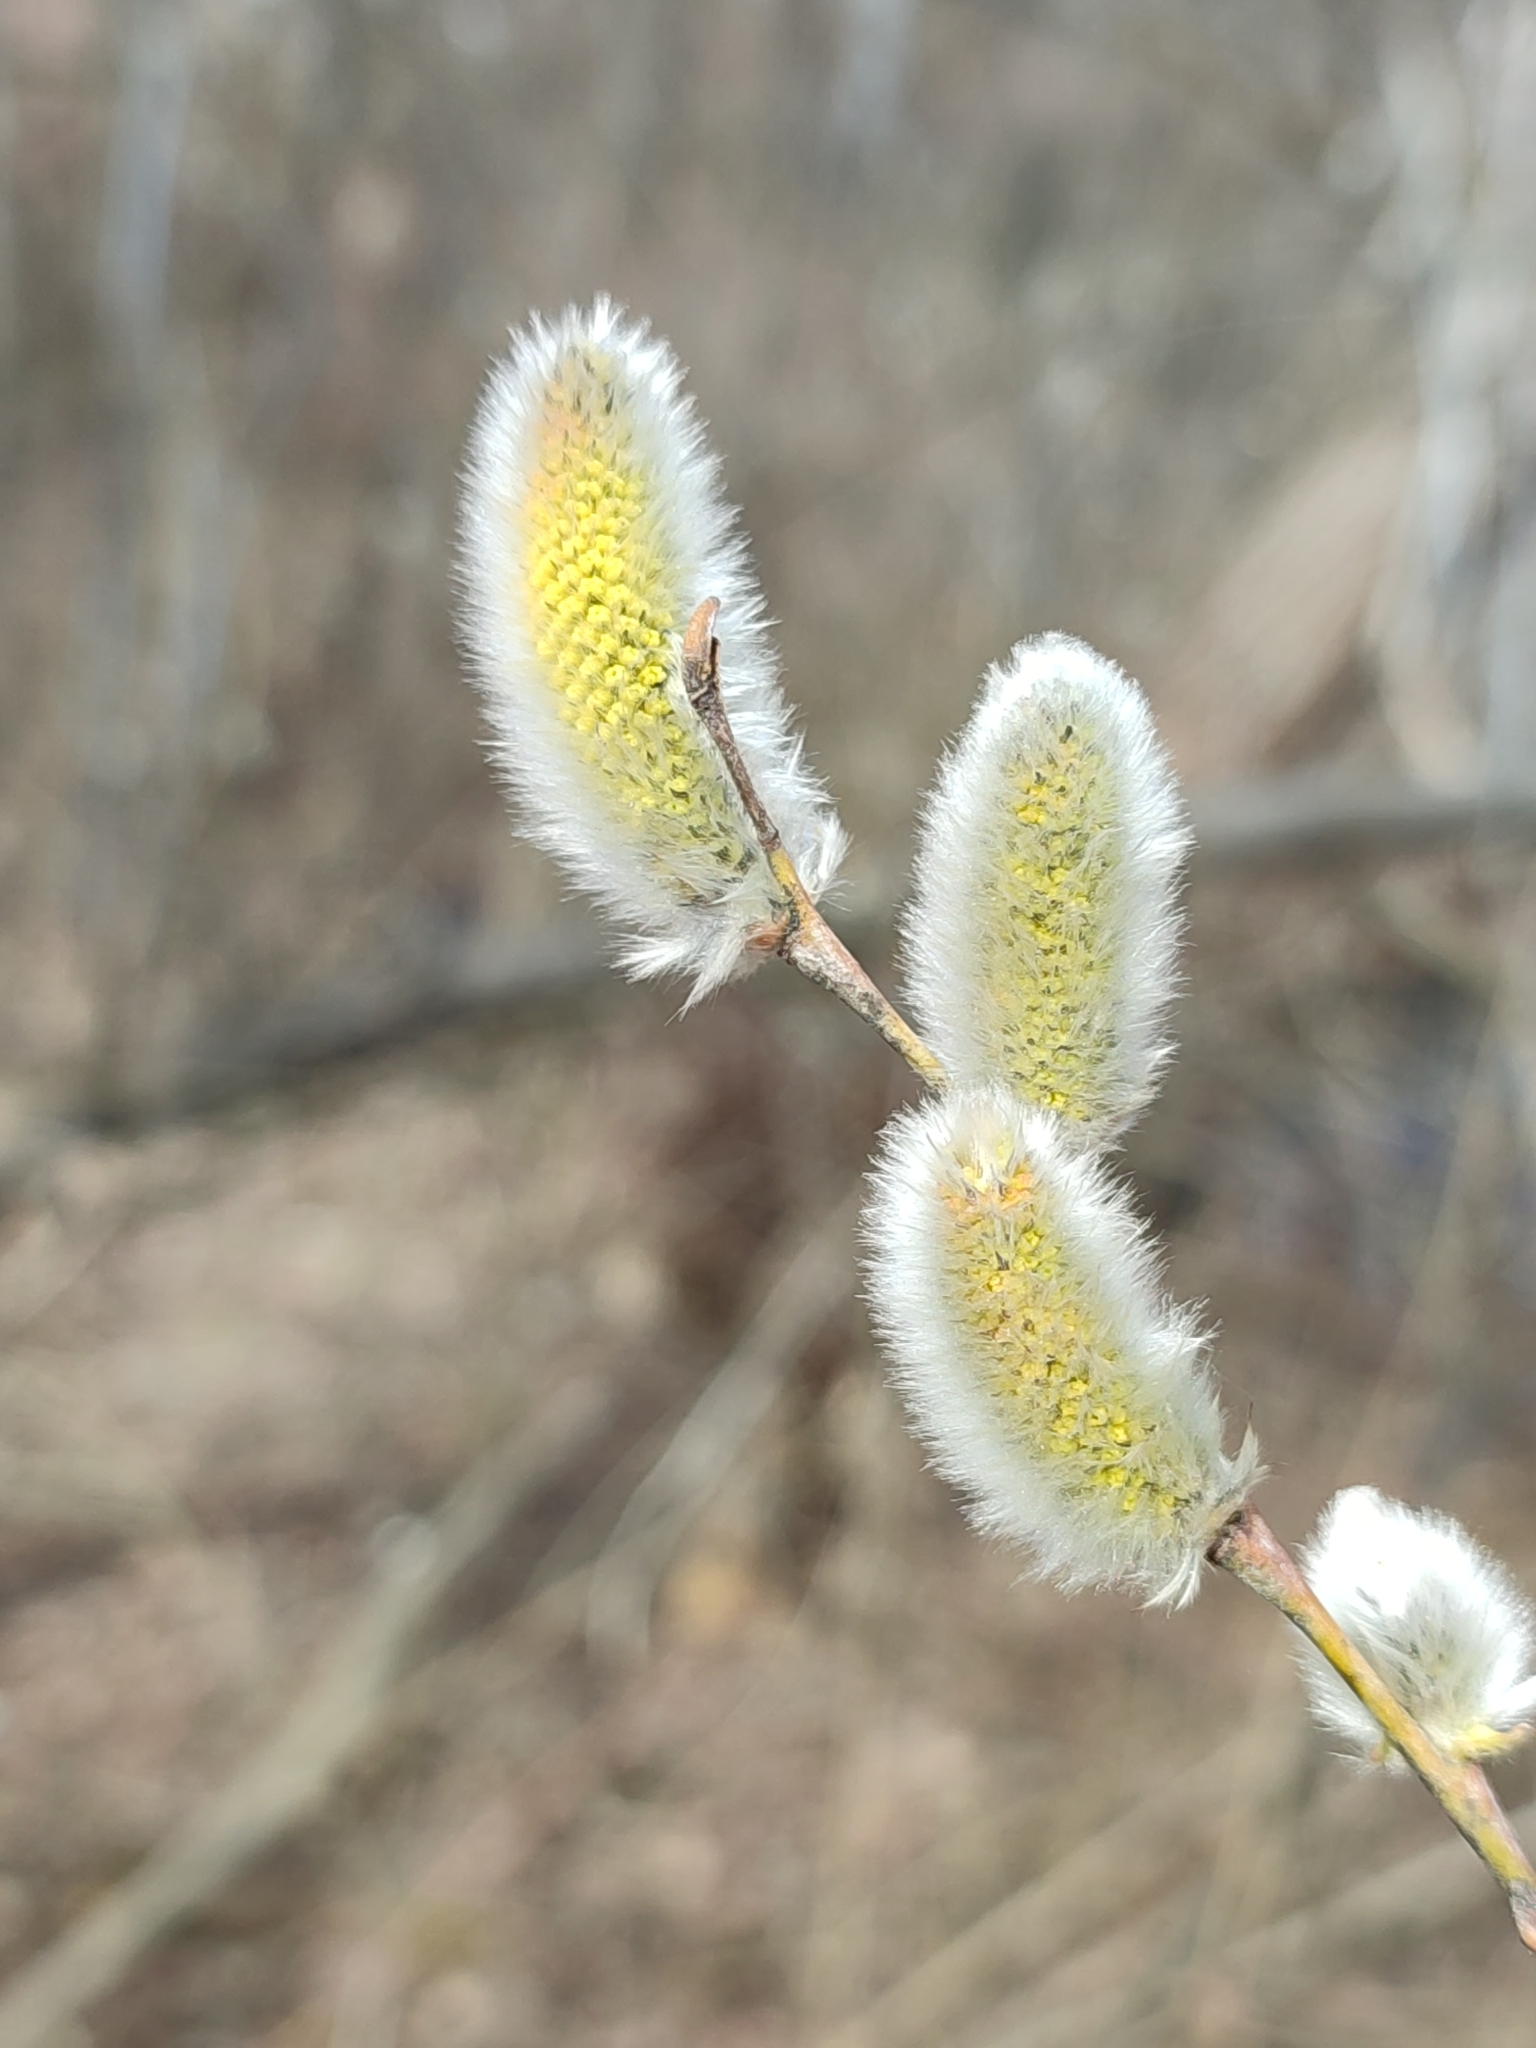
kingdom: Plantae
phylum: Tracheophyta
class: Magnoliopsida
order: Malpighiales
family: Salicaceae
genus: Salix
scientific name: Salix acutifolia
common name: Siberian violet-willow
